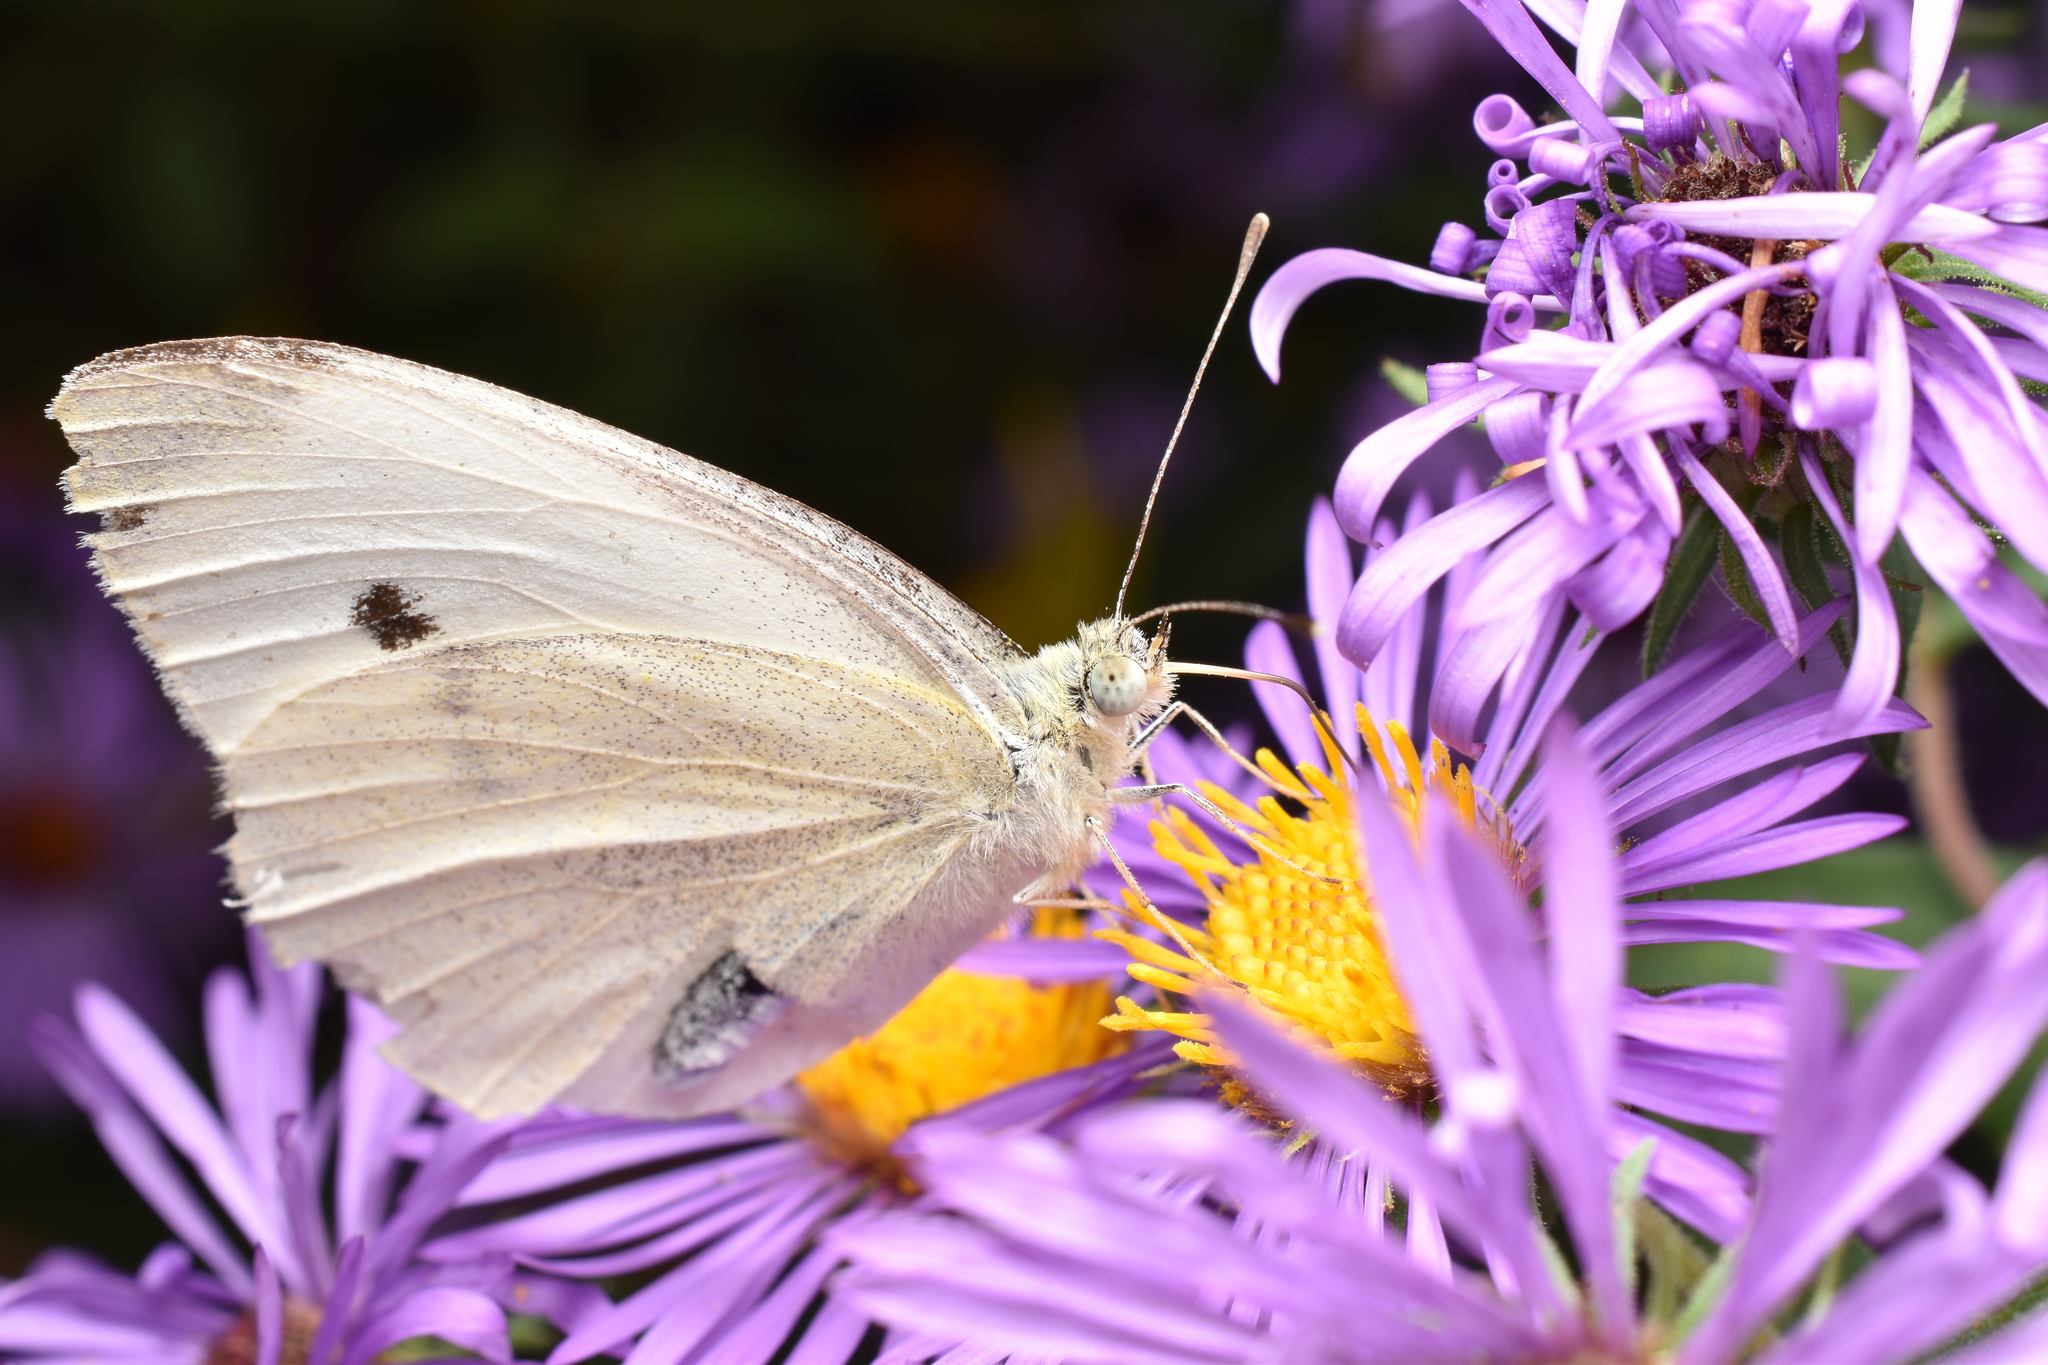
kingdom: Animalia
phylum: Arthropoda
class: Insecta
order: Lepidoptera
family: Pieridae
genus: Pieris
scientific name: Pieris rapae
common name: Small white
